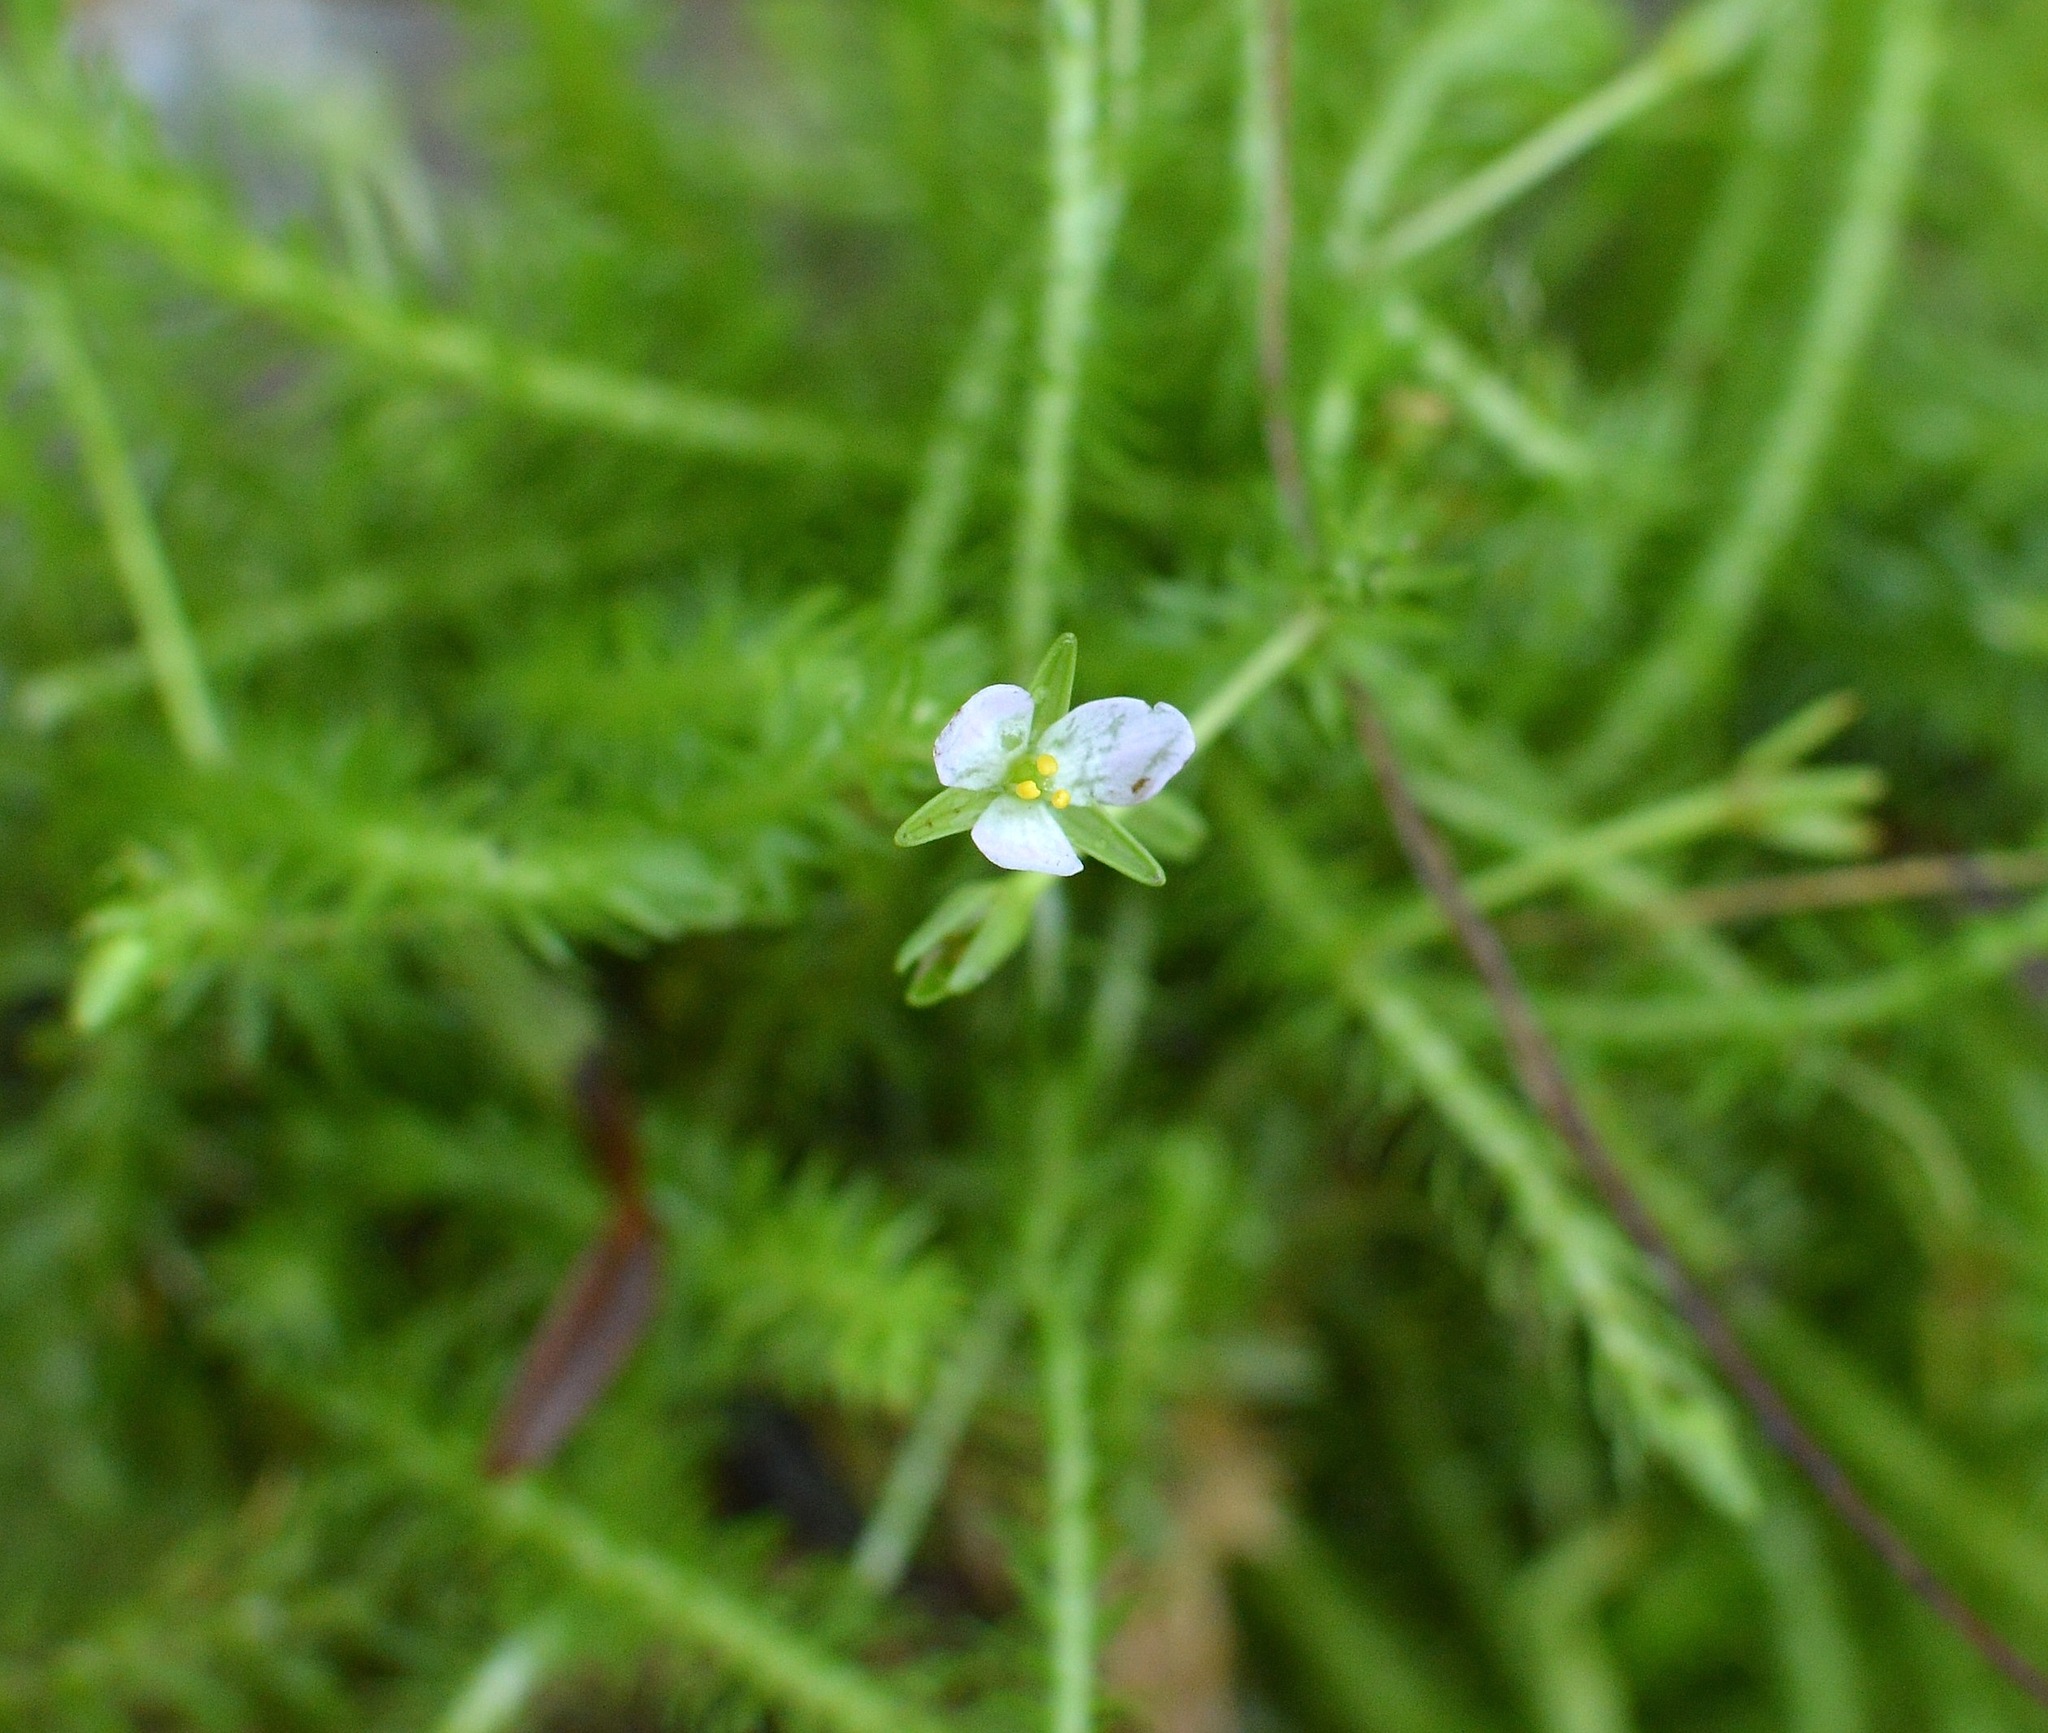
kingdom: Plantae
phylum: Tracheophyta
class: Liliopsida
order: Poales
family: Mayacaceae
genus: Mayaca
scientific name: Mayaca fluviatilis
